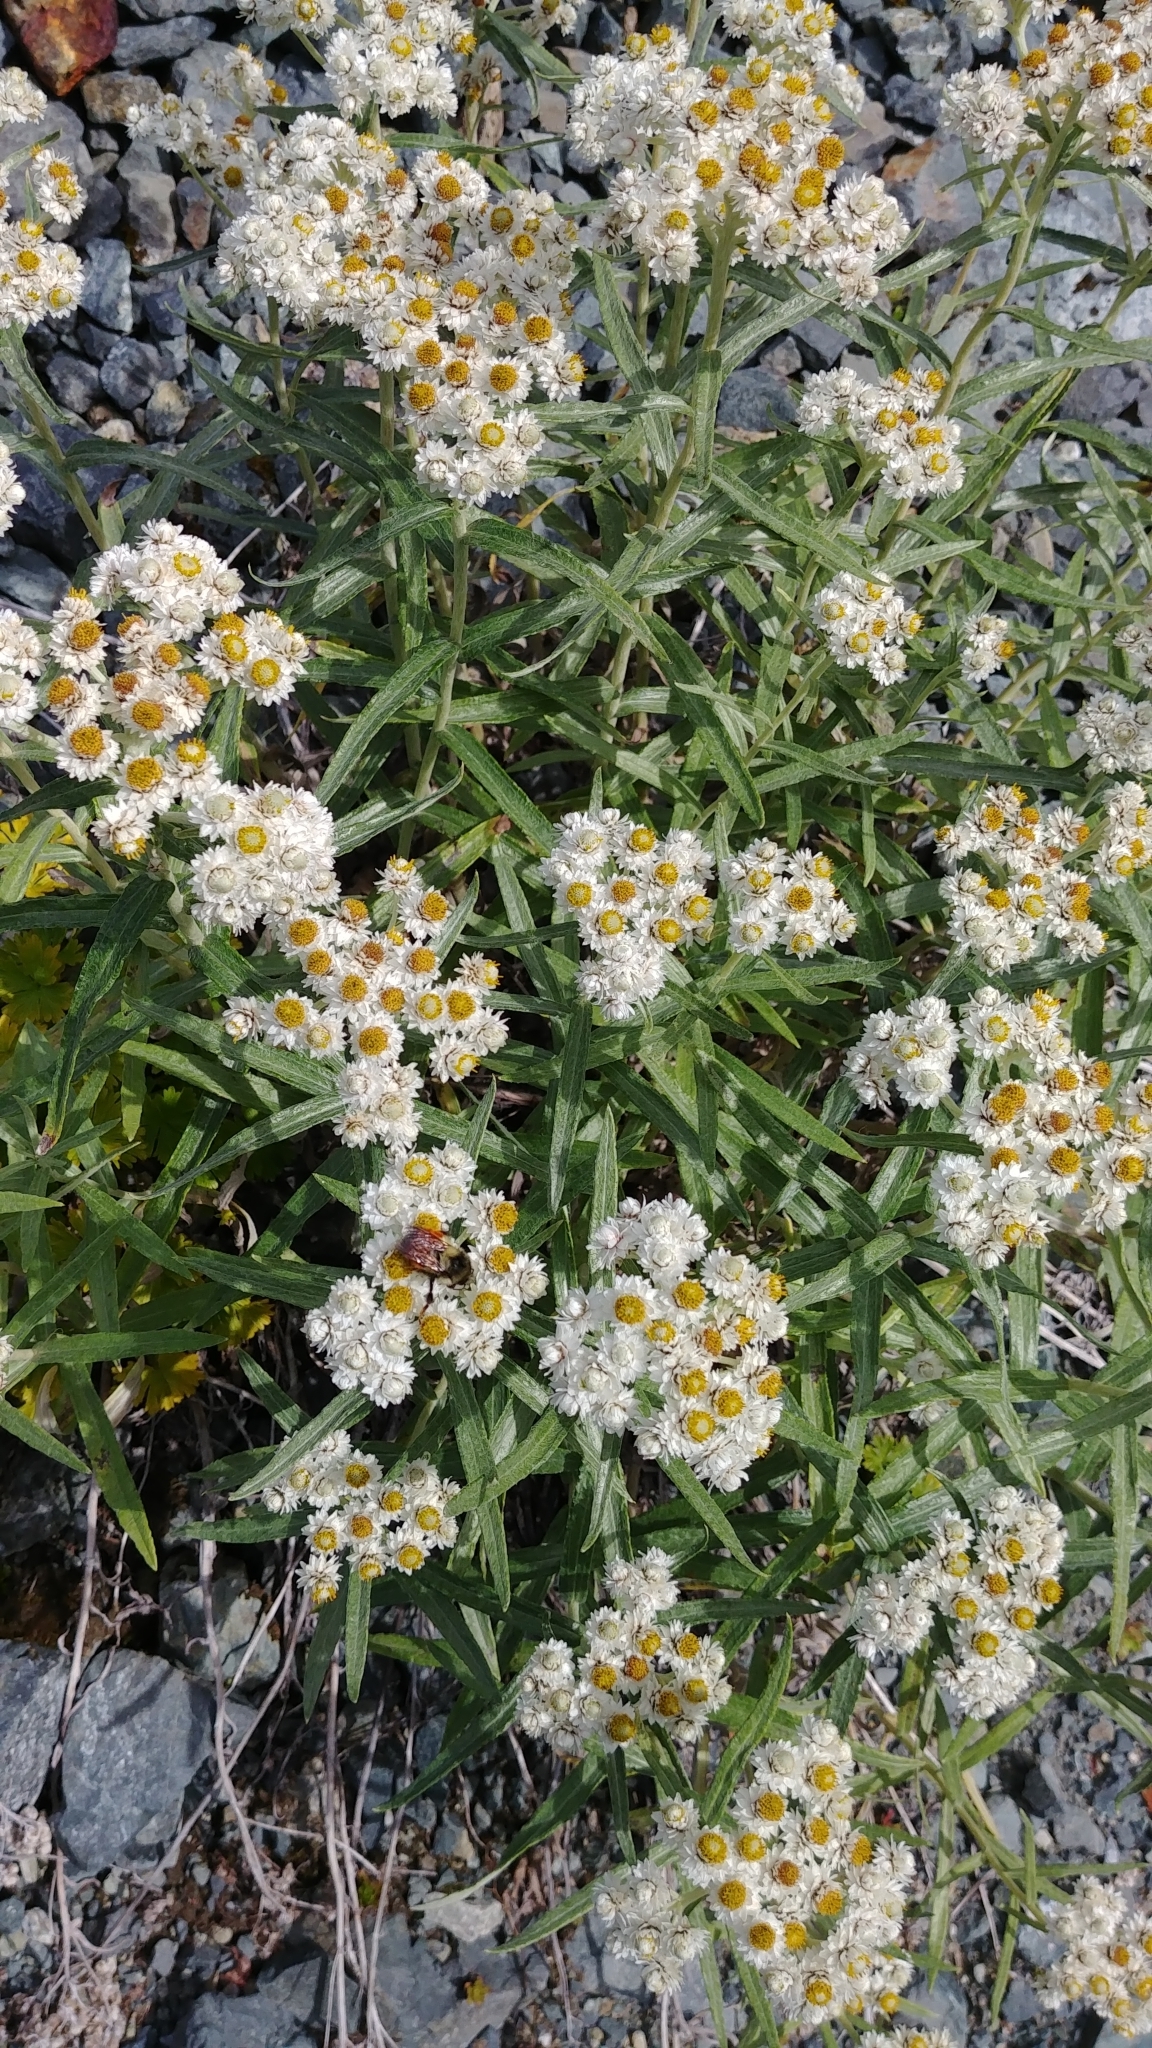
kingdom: Plantae
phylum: Tracheophyta
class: Magnoliopsida
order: Asterales
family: Asteraceae
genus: Anaphalis
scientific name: Anaphalis margaritacea
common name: Pearly everlasting
